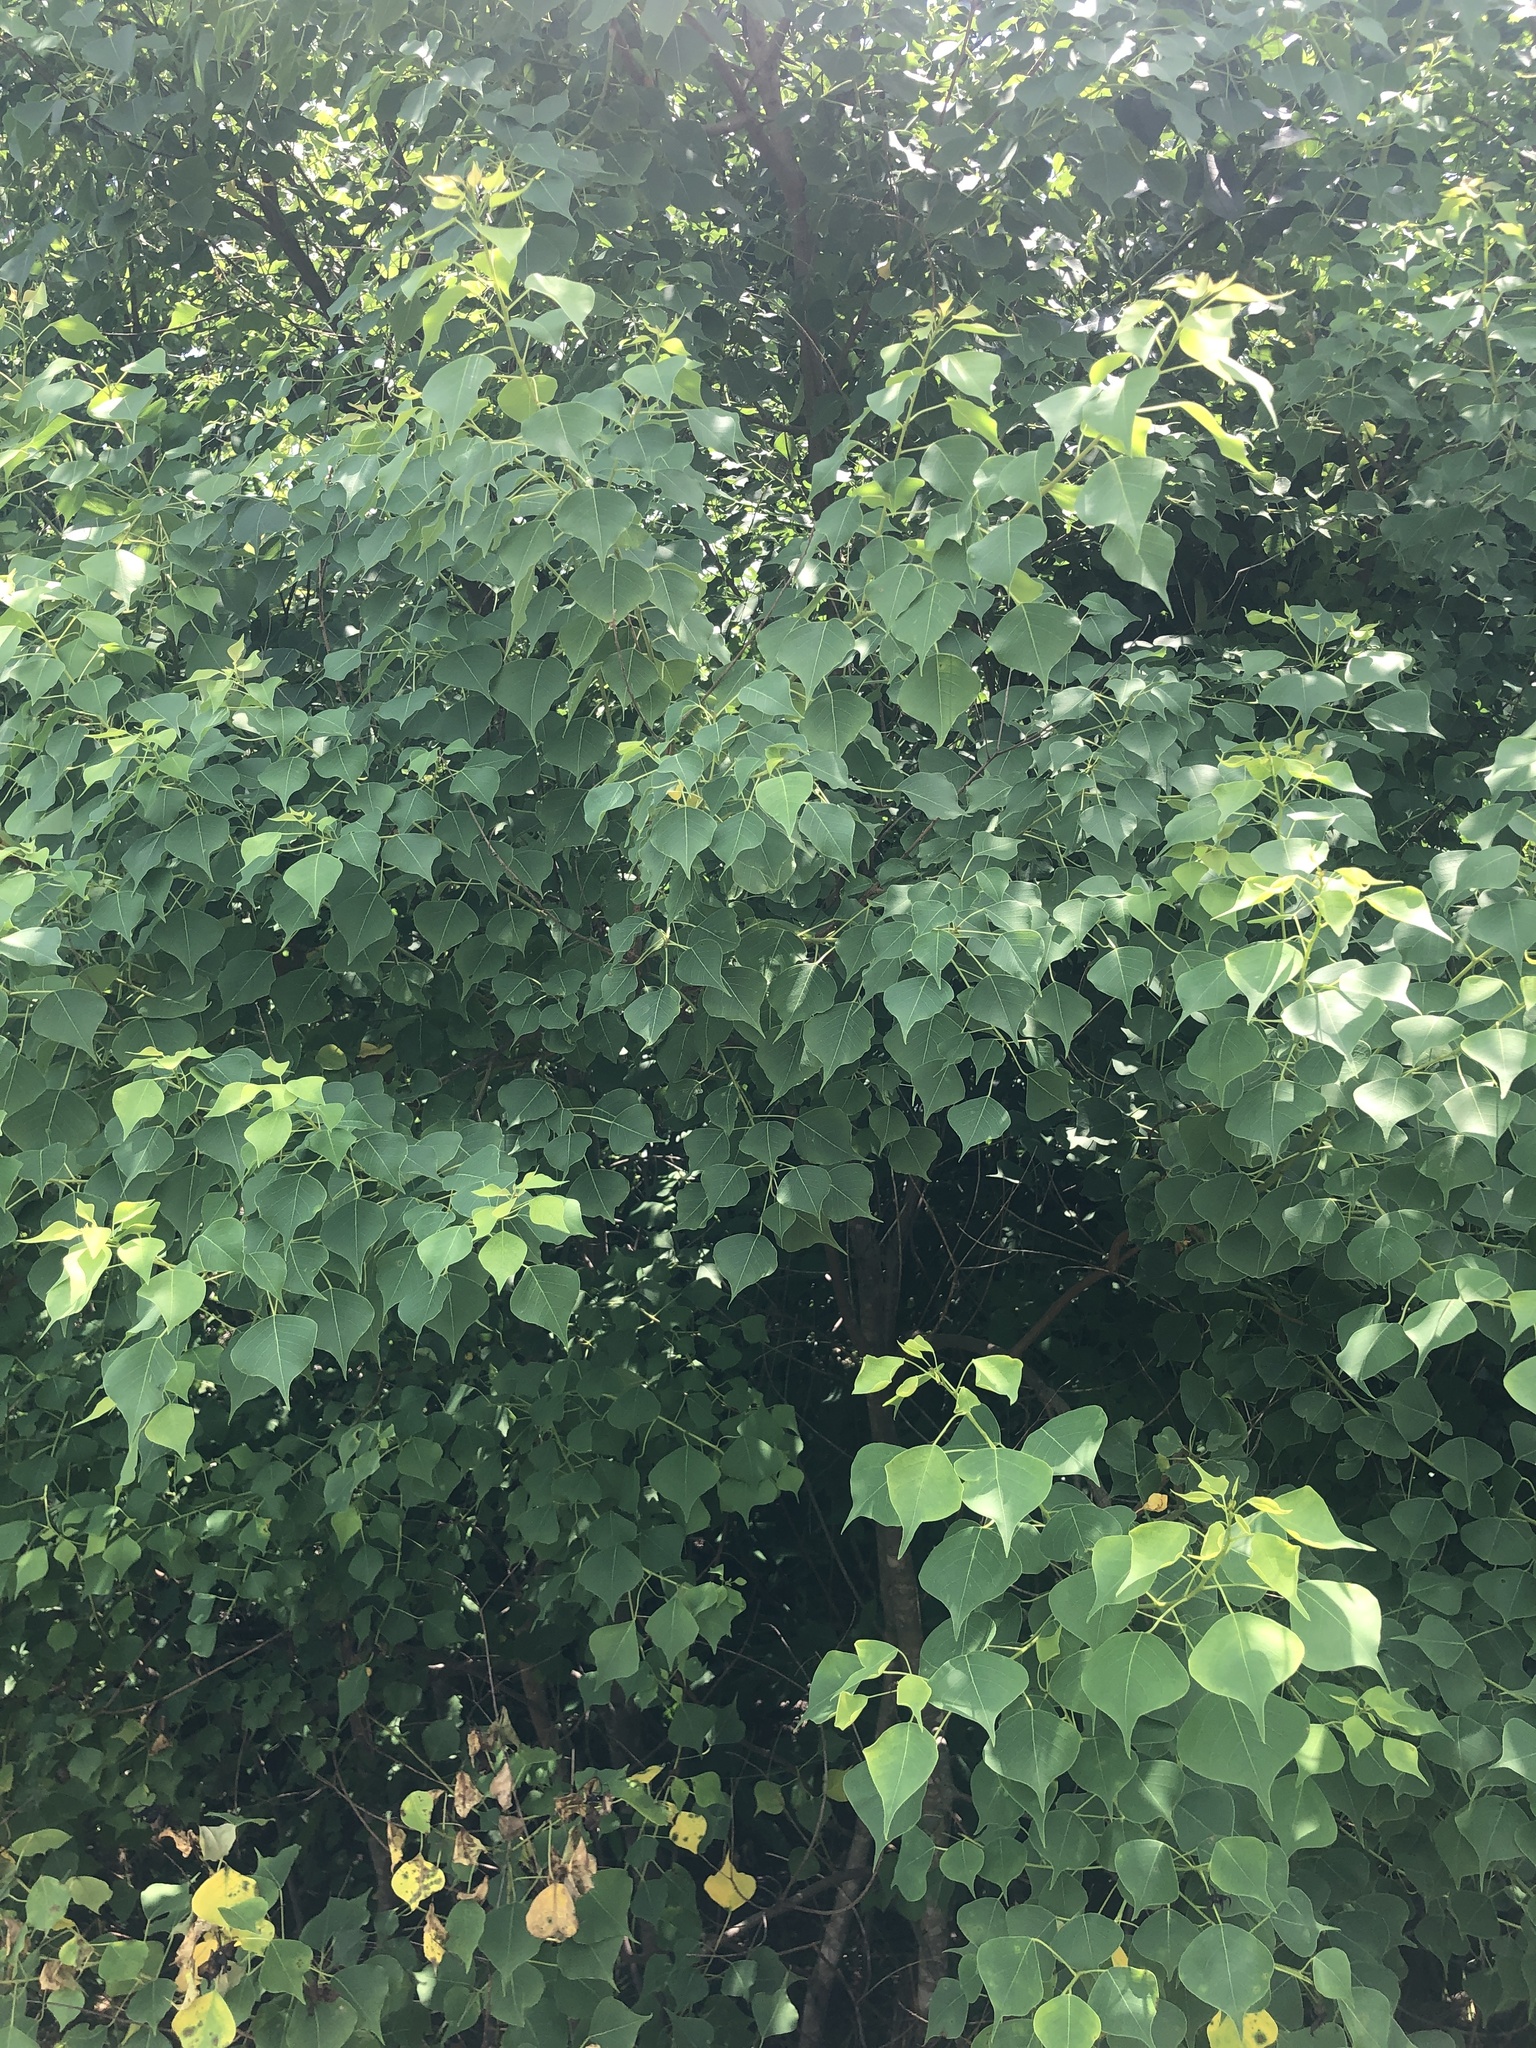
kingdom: Plantae
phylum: Tracheophyta
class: Magnoliopsida
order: Malpighiales
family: Euphorbiaceae
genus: Triadica
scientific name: Triadica sebifera
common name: Chinese tallow
